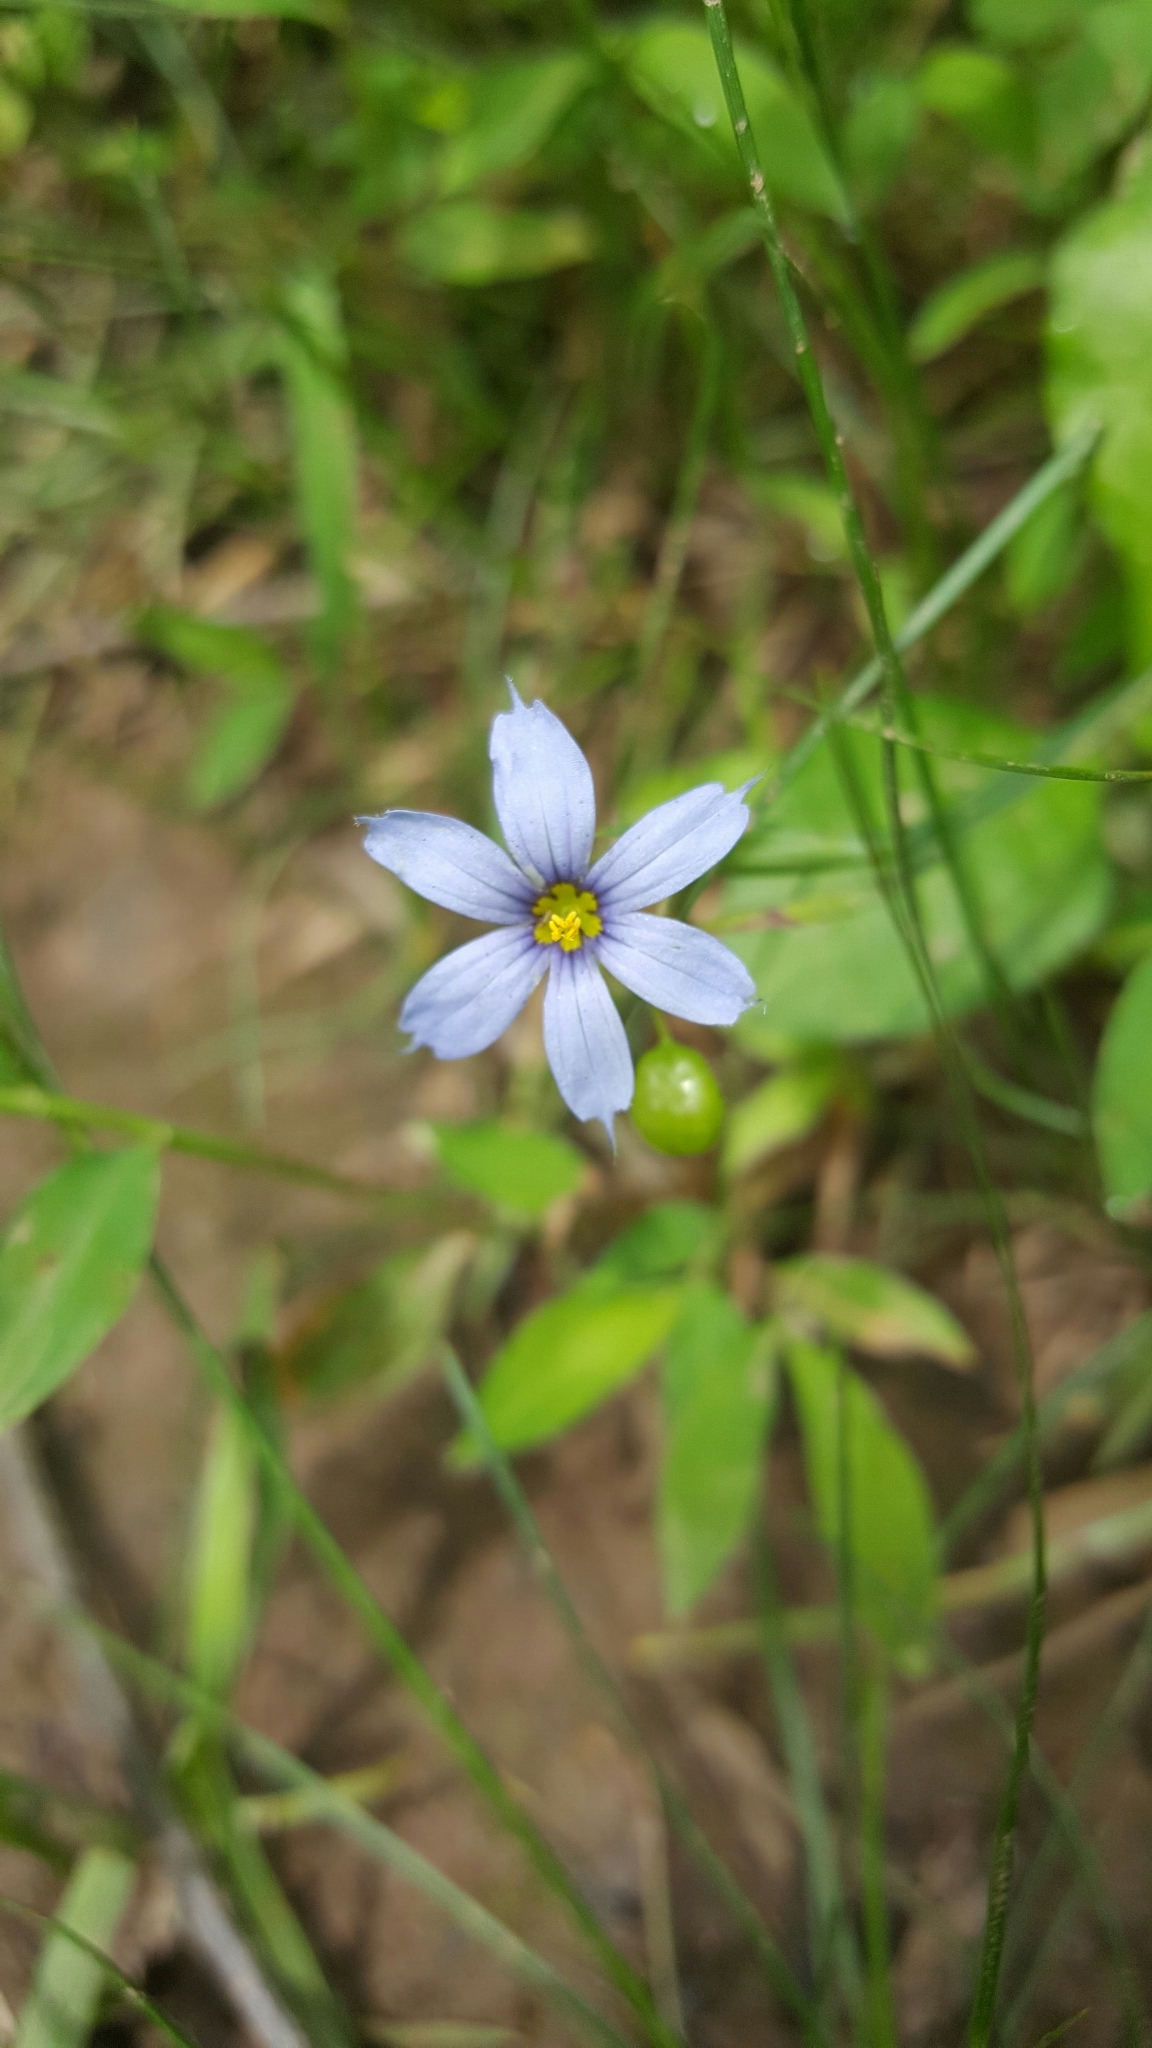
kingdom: Plantae
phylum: Tracheophyta
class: Liliopsida
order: Asparagales
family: Iridaceae
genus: Sisyrinchium
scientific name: Sisyrinchium angustifolium
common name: Narrow-leaf blue-eyed-grass
